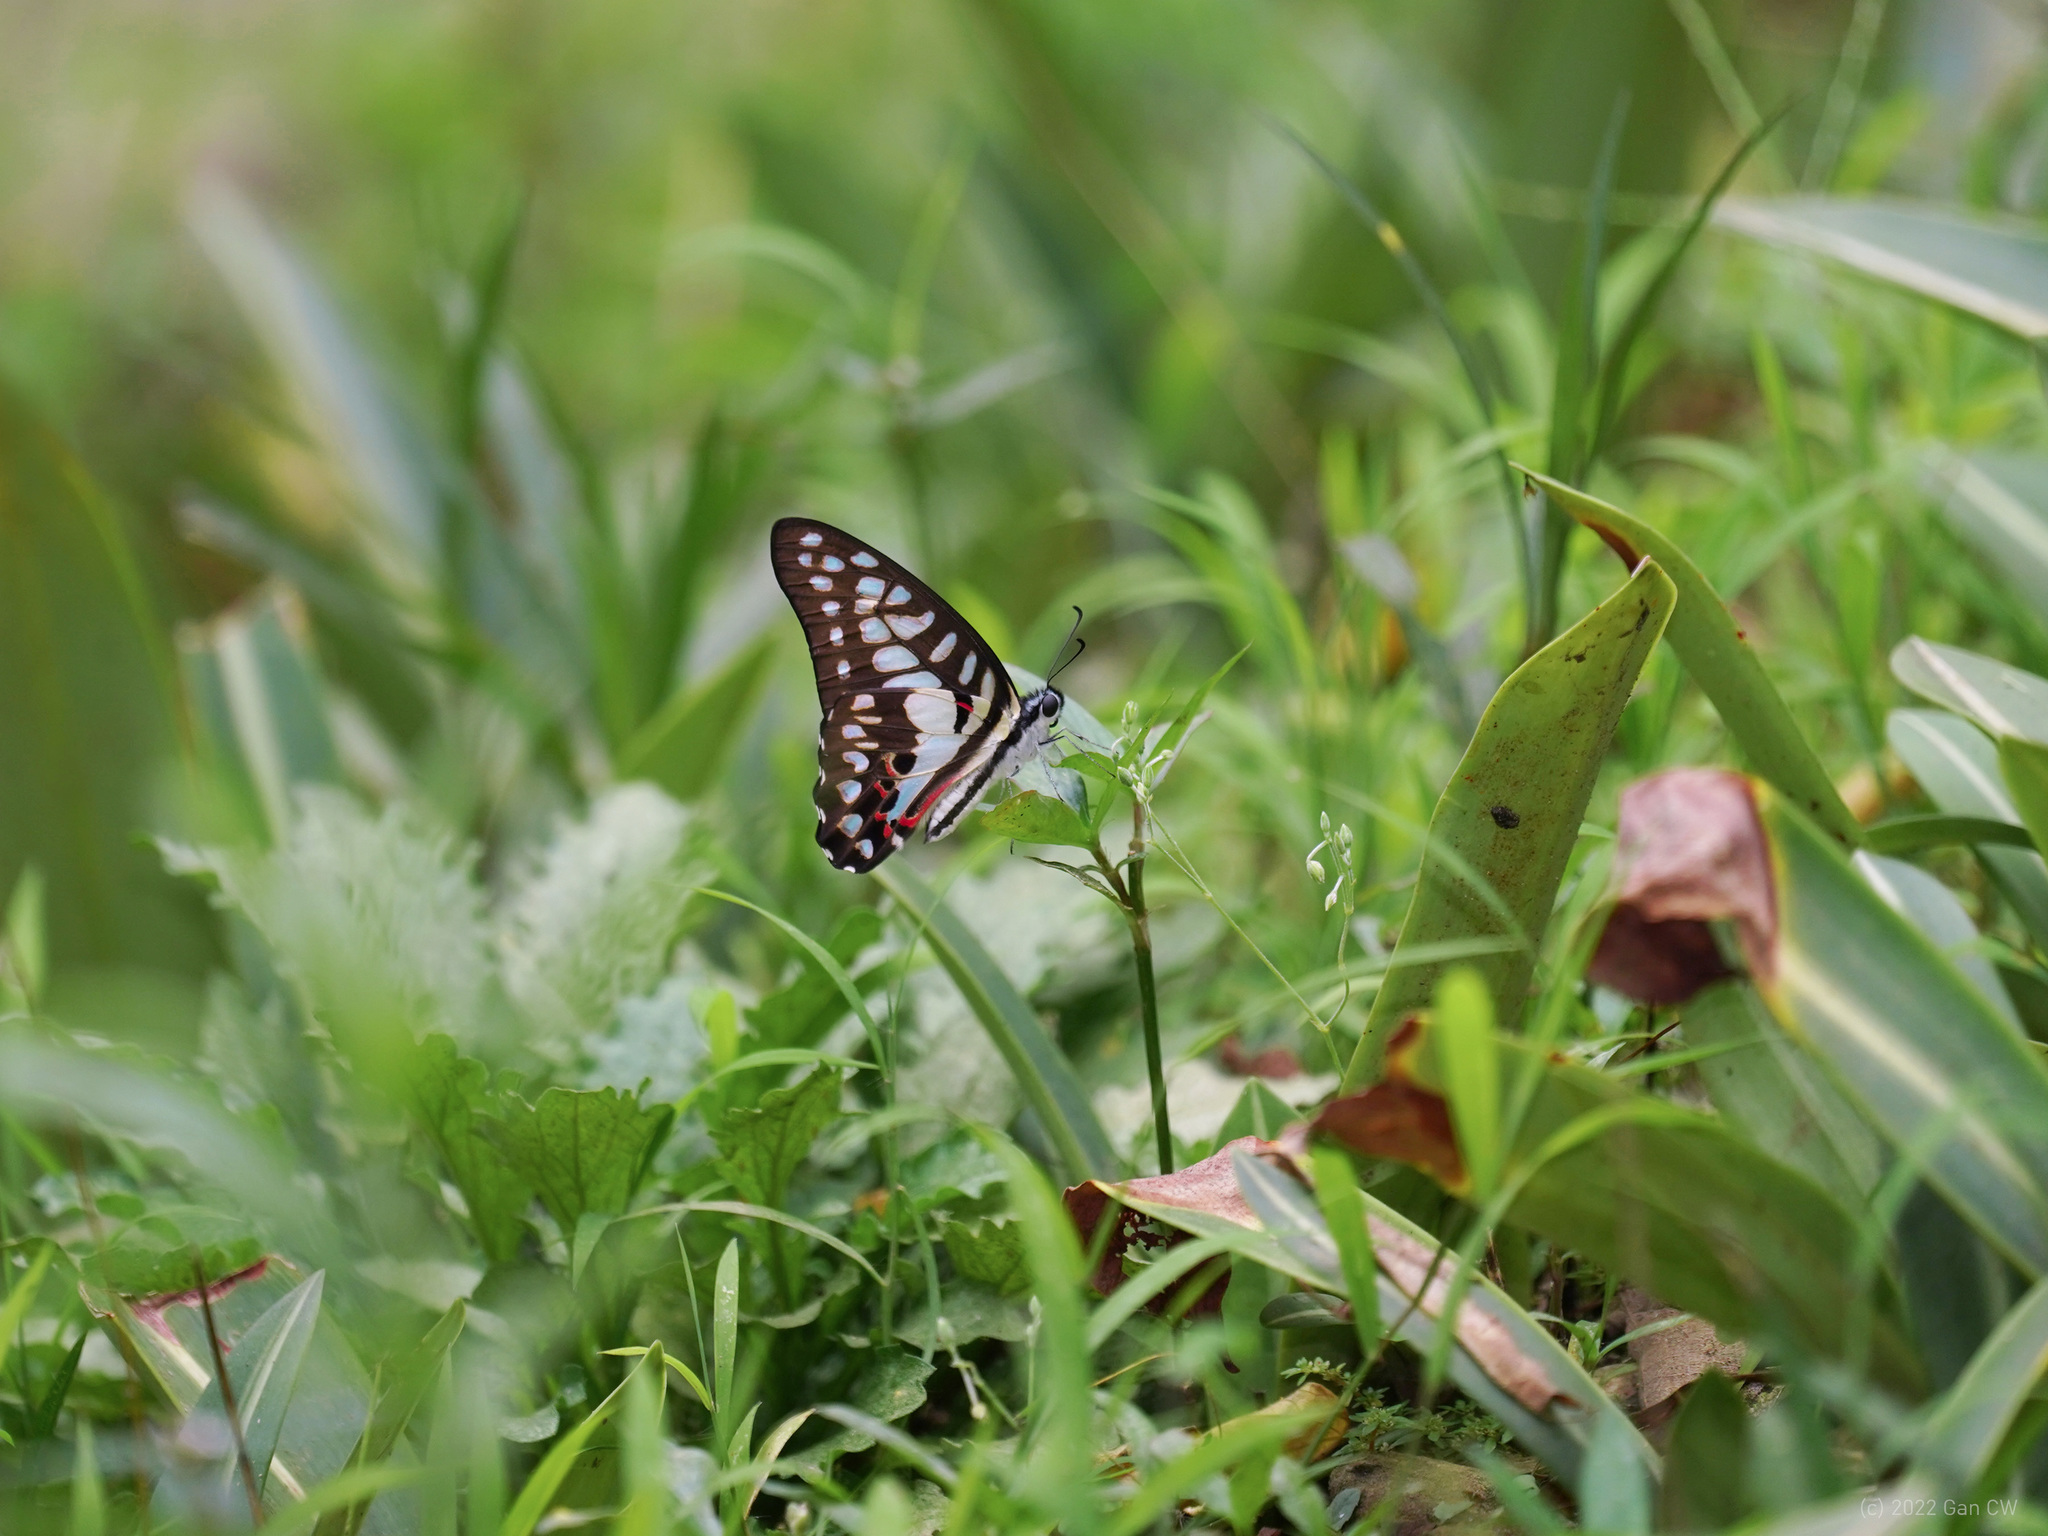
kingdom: Animalia
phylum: Arthropoda
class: Insecta
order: Lepidoptera
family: Papilionidae
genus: Graphium
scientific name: Graphium doson
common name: Common jay
